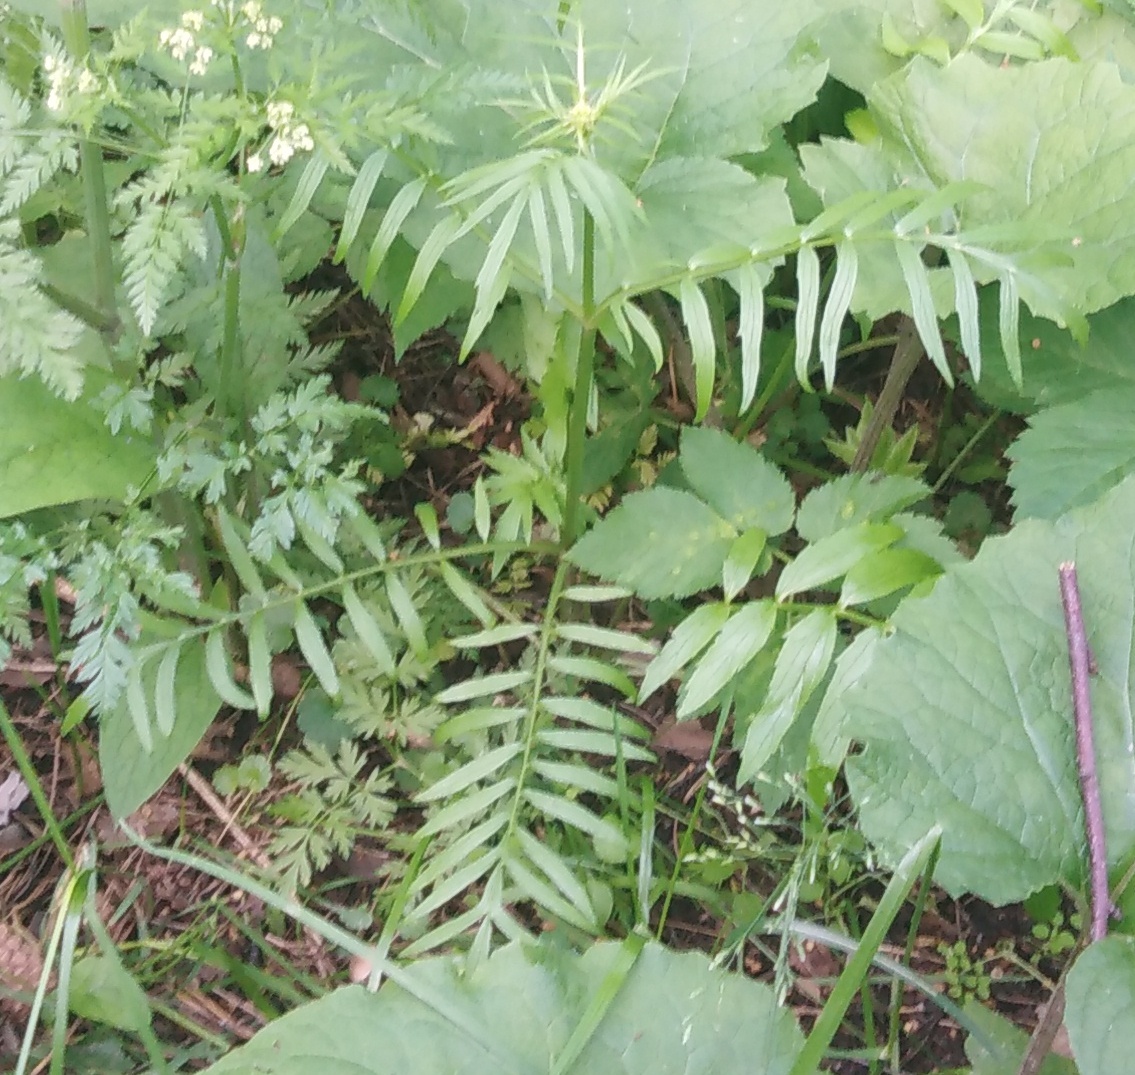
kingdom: Plantae
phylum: Tracheophyta
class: Magnoliopsida
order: Apiales
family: Apiaceae
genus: Sium
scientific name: Sium latifolium
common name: Greater water-parsnip
